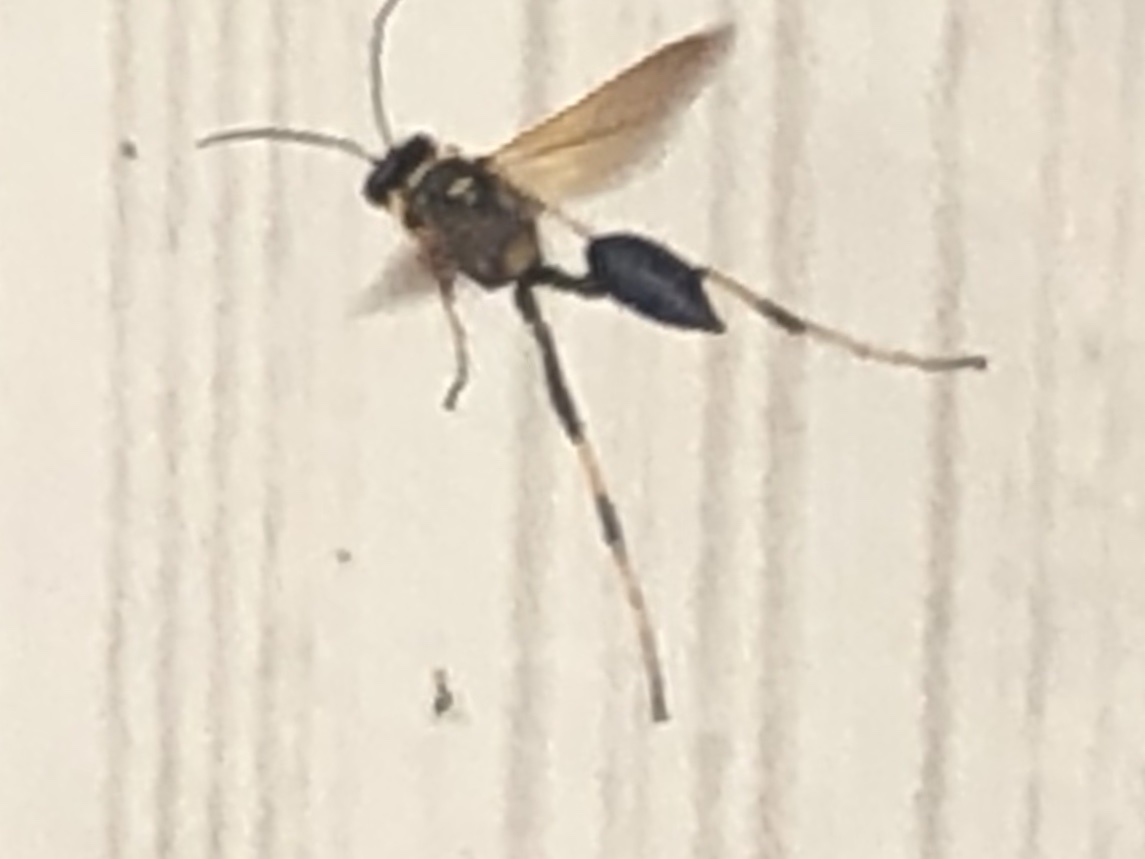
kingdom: Animalia
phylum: Arthropoda
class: Insecta
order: Hymenoptera
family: Sphecidae
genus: Sceliphron
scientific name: Sceliphron caementarium
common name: Mud dauber
